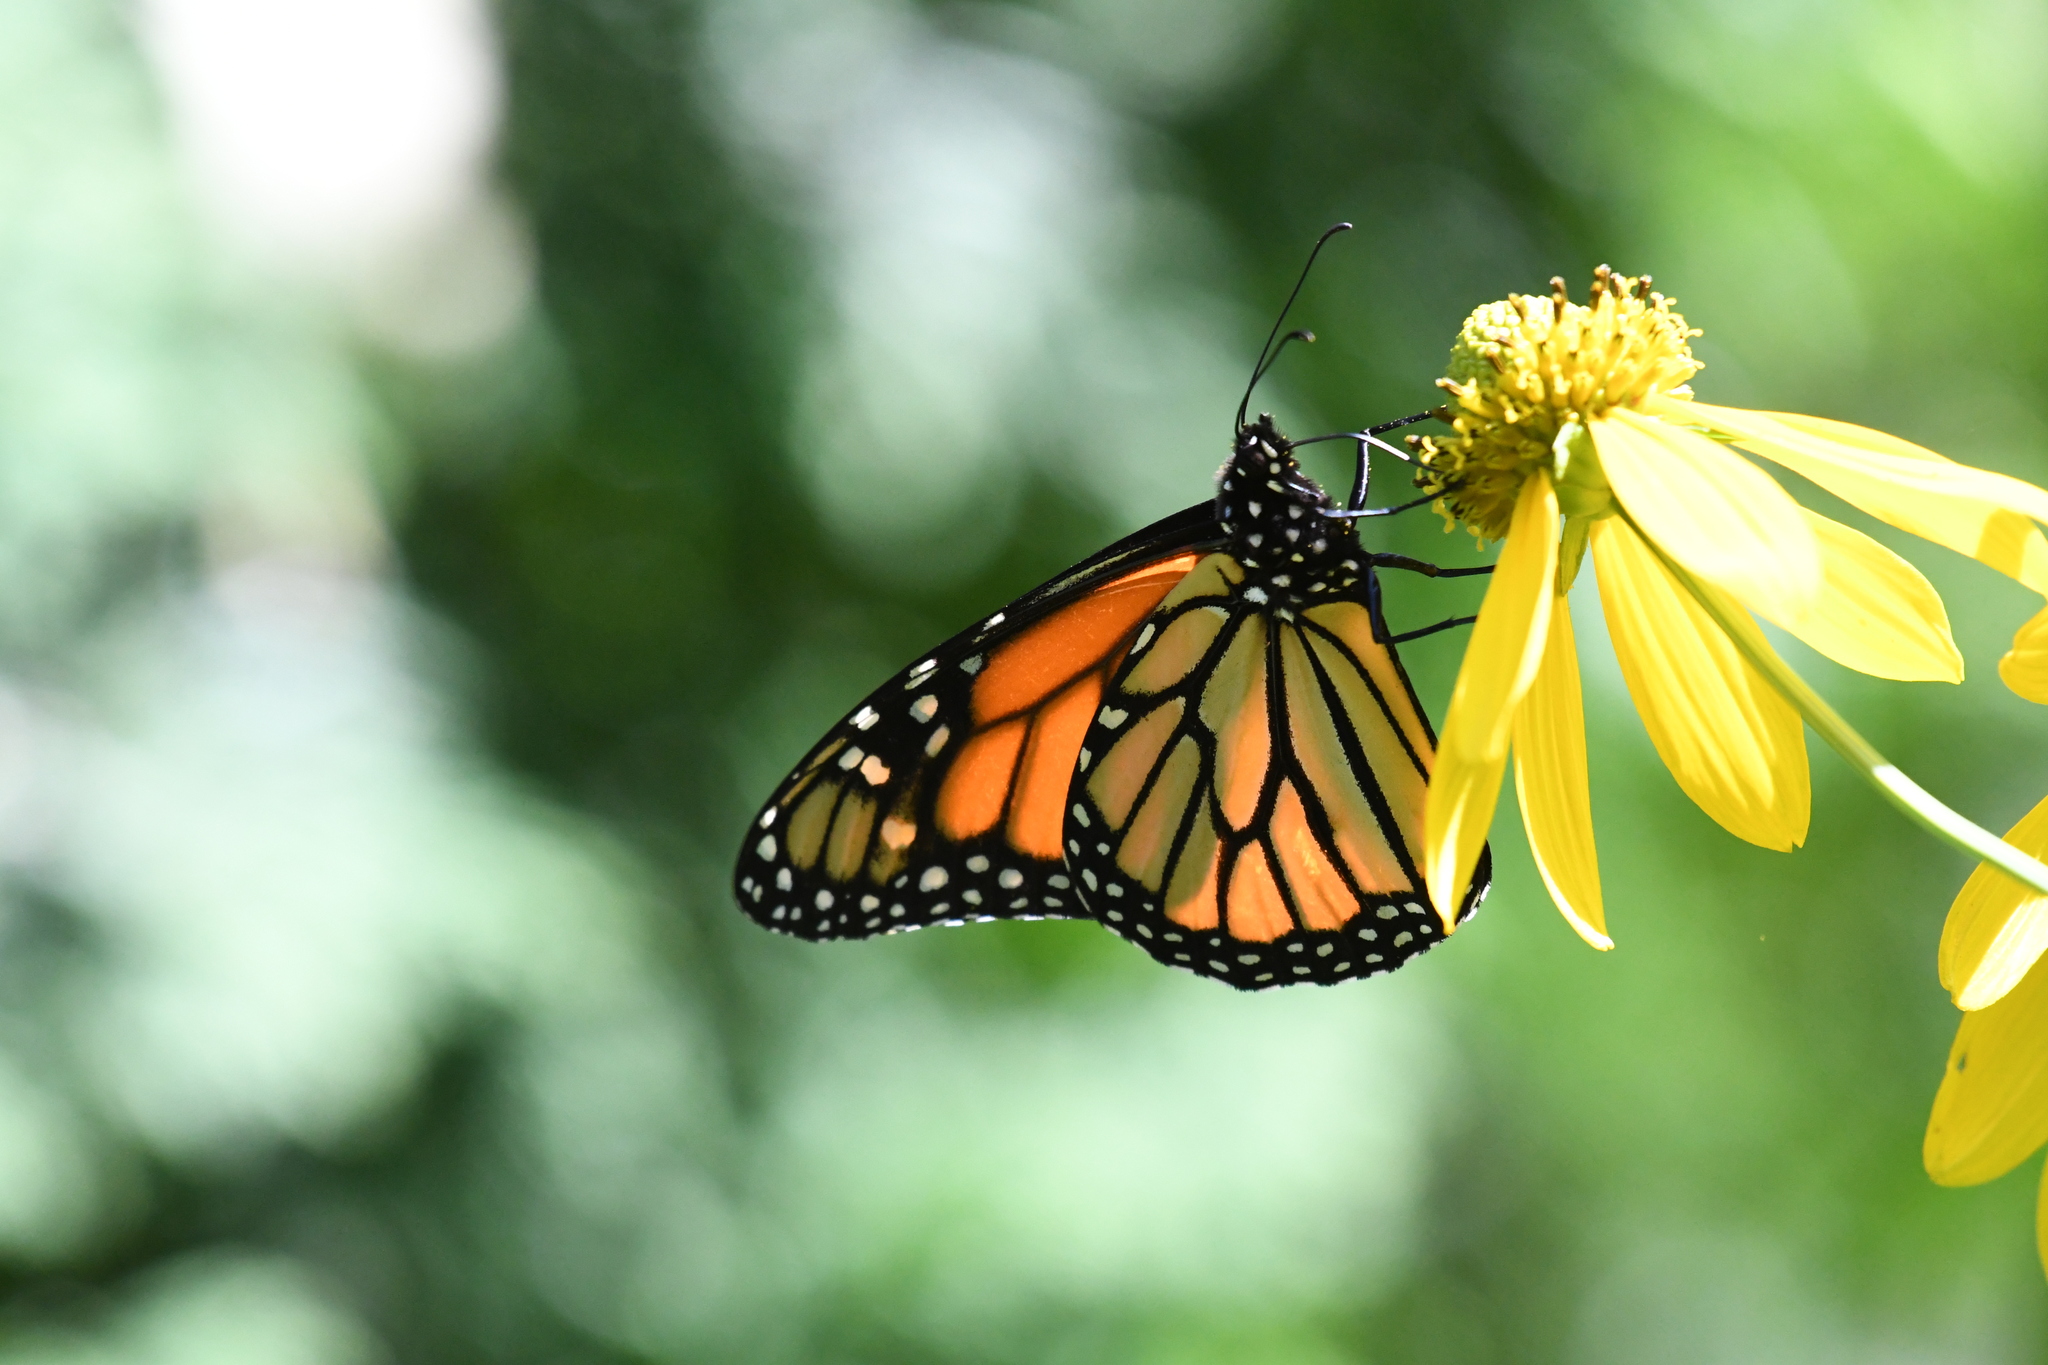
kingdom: Animalia
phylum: Arthropoda
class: Insecta
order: Lepidoptera
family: Nymphalidae
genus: Danaus
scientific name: Danaus plexippus
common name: Monarch
